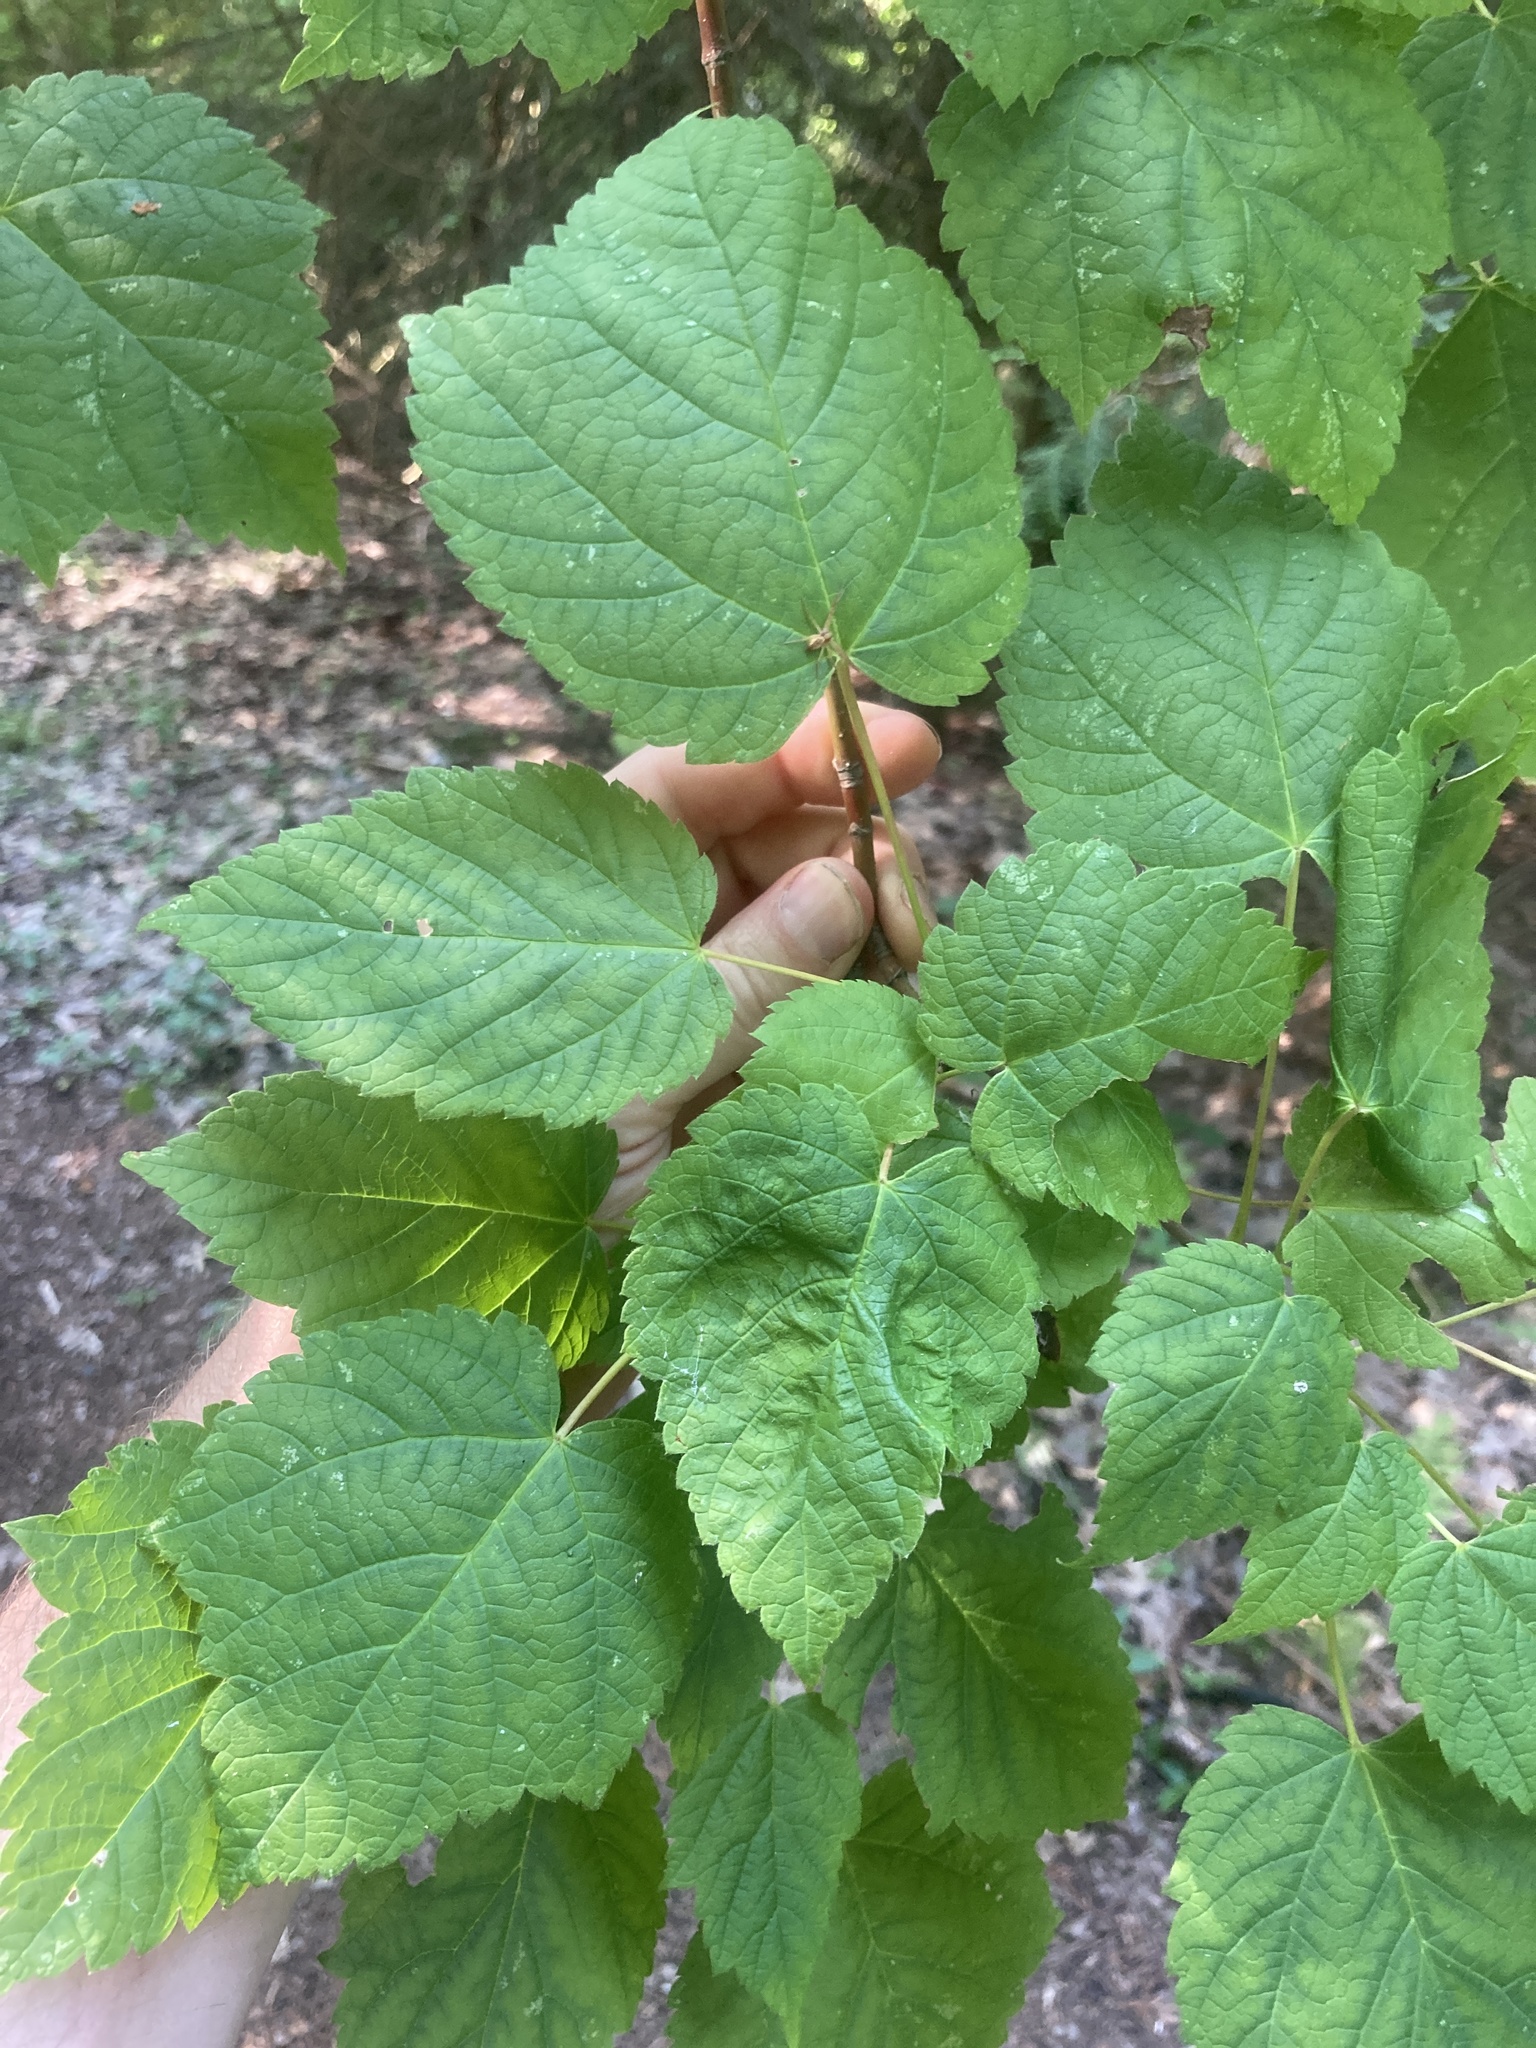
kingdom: Plantae
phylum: Tracheophyta
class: Magnoliopsida
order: Sapindales
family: Sapindaceae
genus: Acer
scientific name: Acer spicatum
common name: Mountain maple
